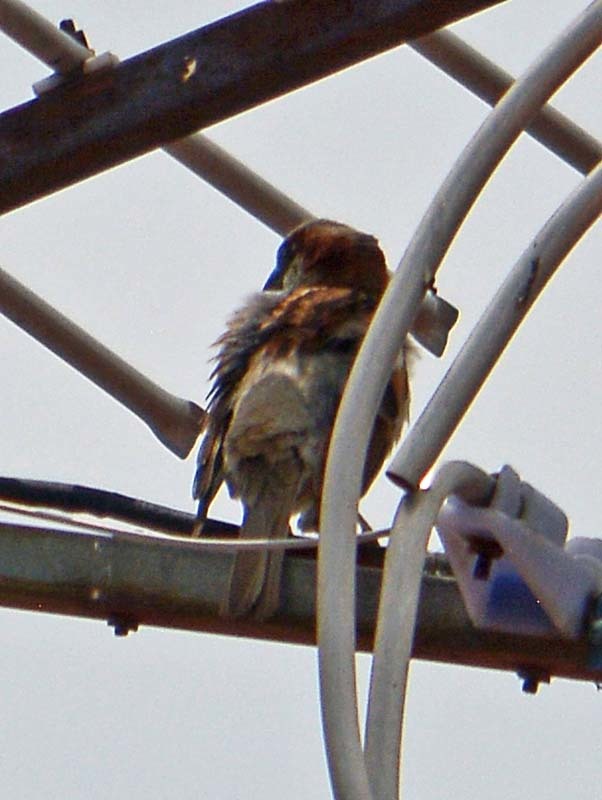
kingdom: Animalia
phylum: Chordata
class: Aves
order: Passeriformes
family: Passeridae
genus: Passer
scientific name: Passer domesticus
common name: House sparrow
